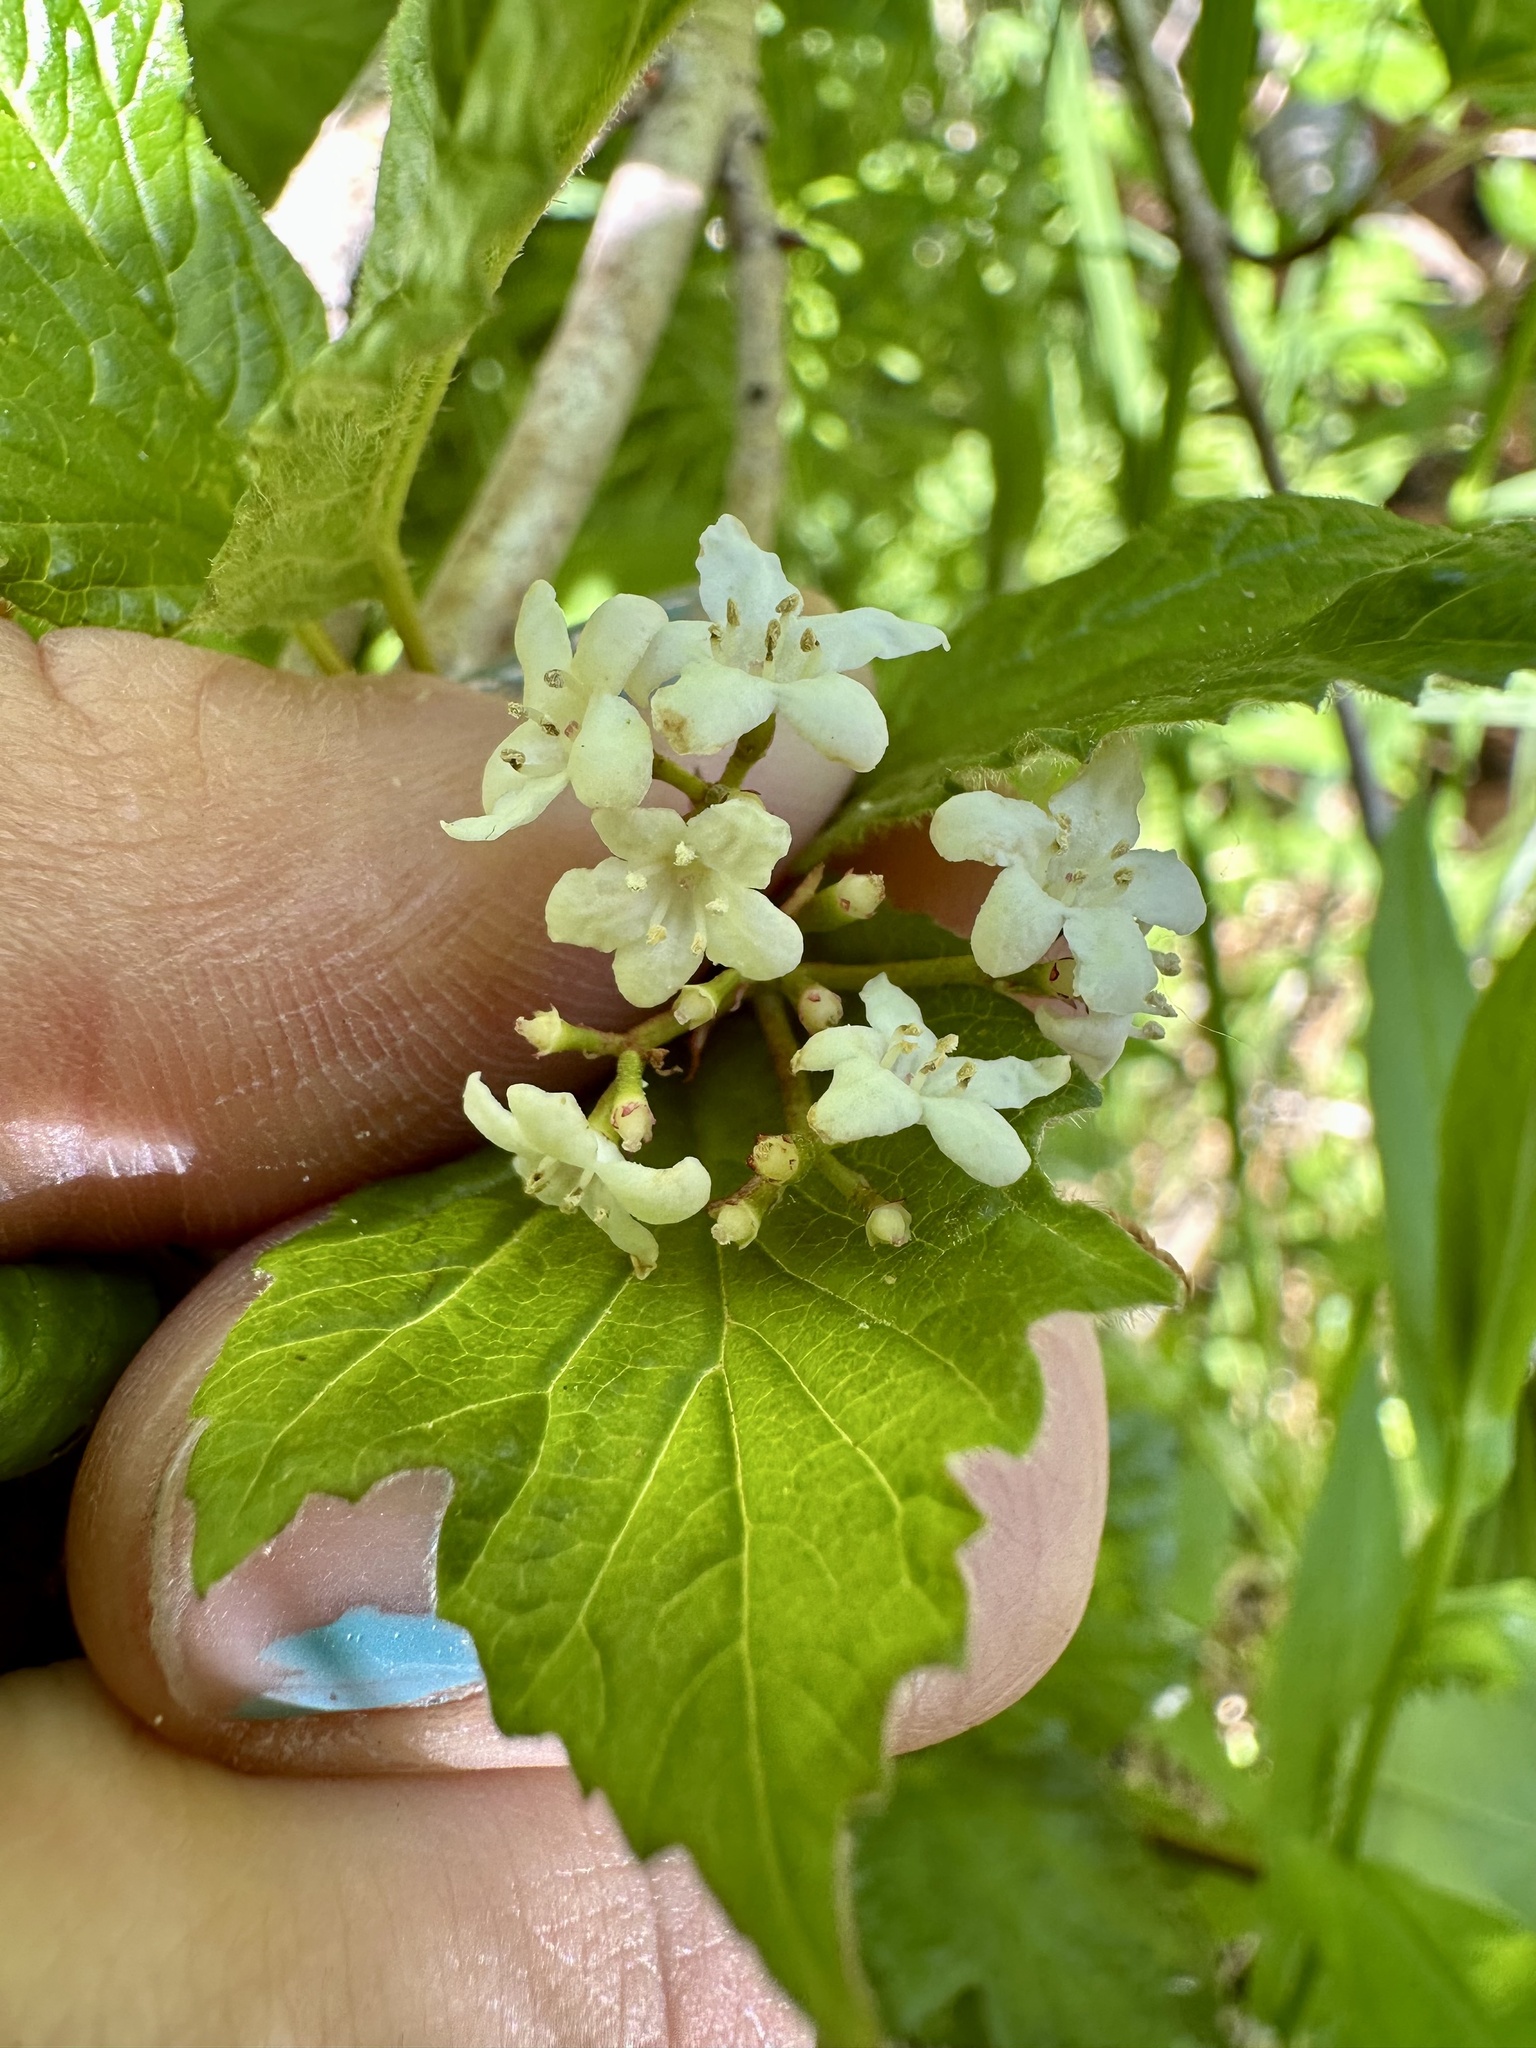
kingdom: Plantae
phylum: Tracheophyta
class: Magnoliopsida
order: Dipsacales
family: Viburnaceae
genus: Viburnum
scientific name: Viburnum edule
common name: Mooseberry
